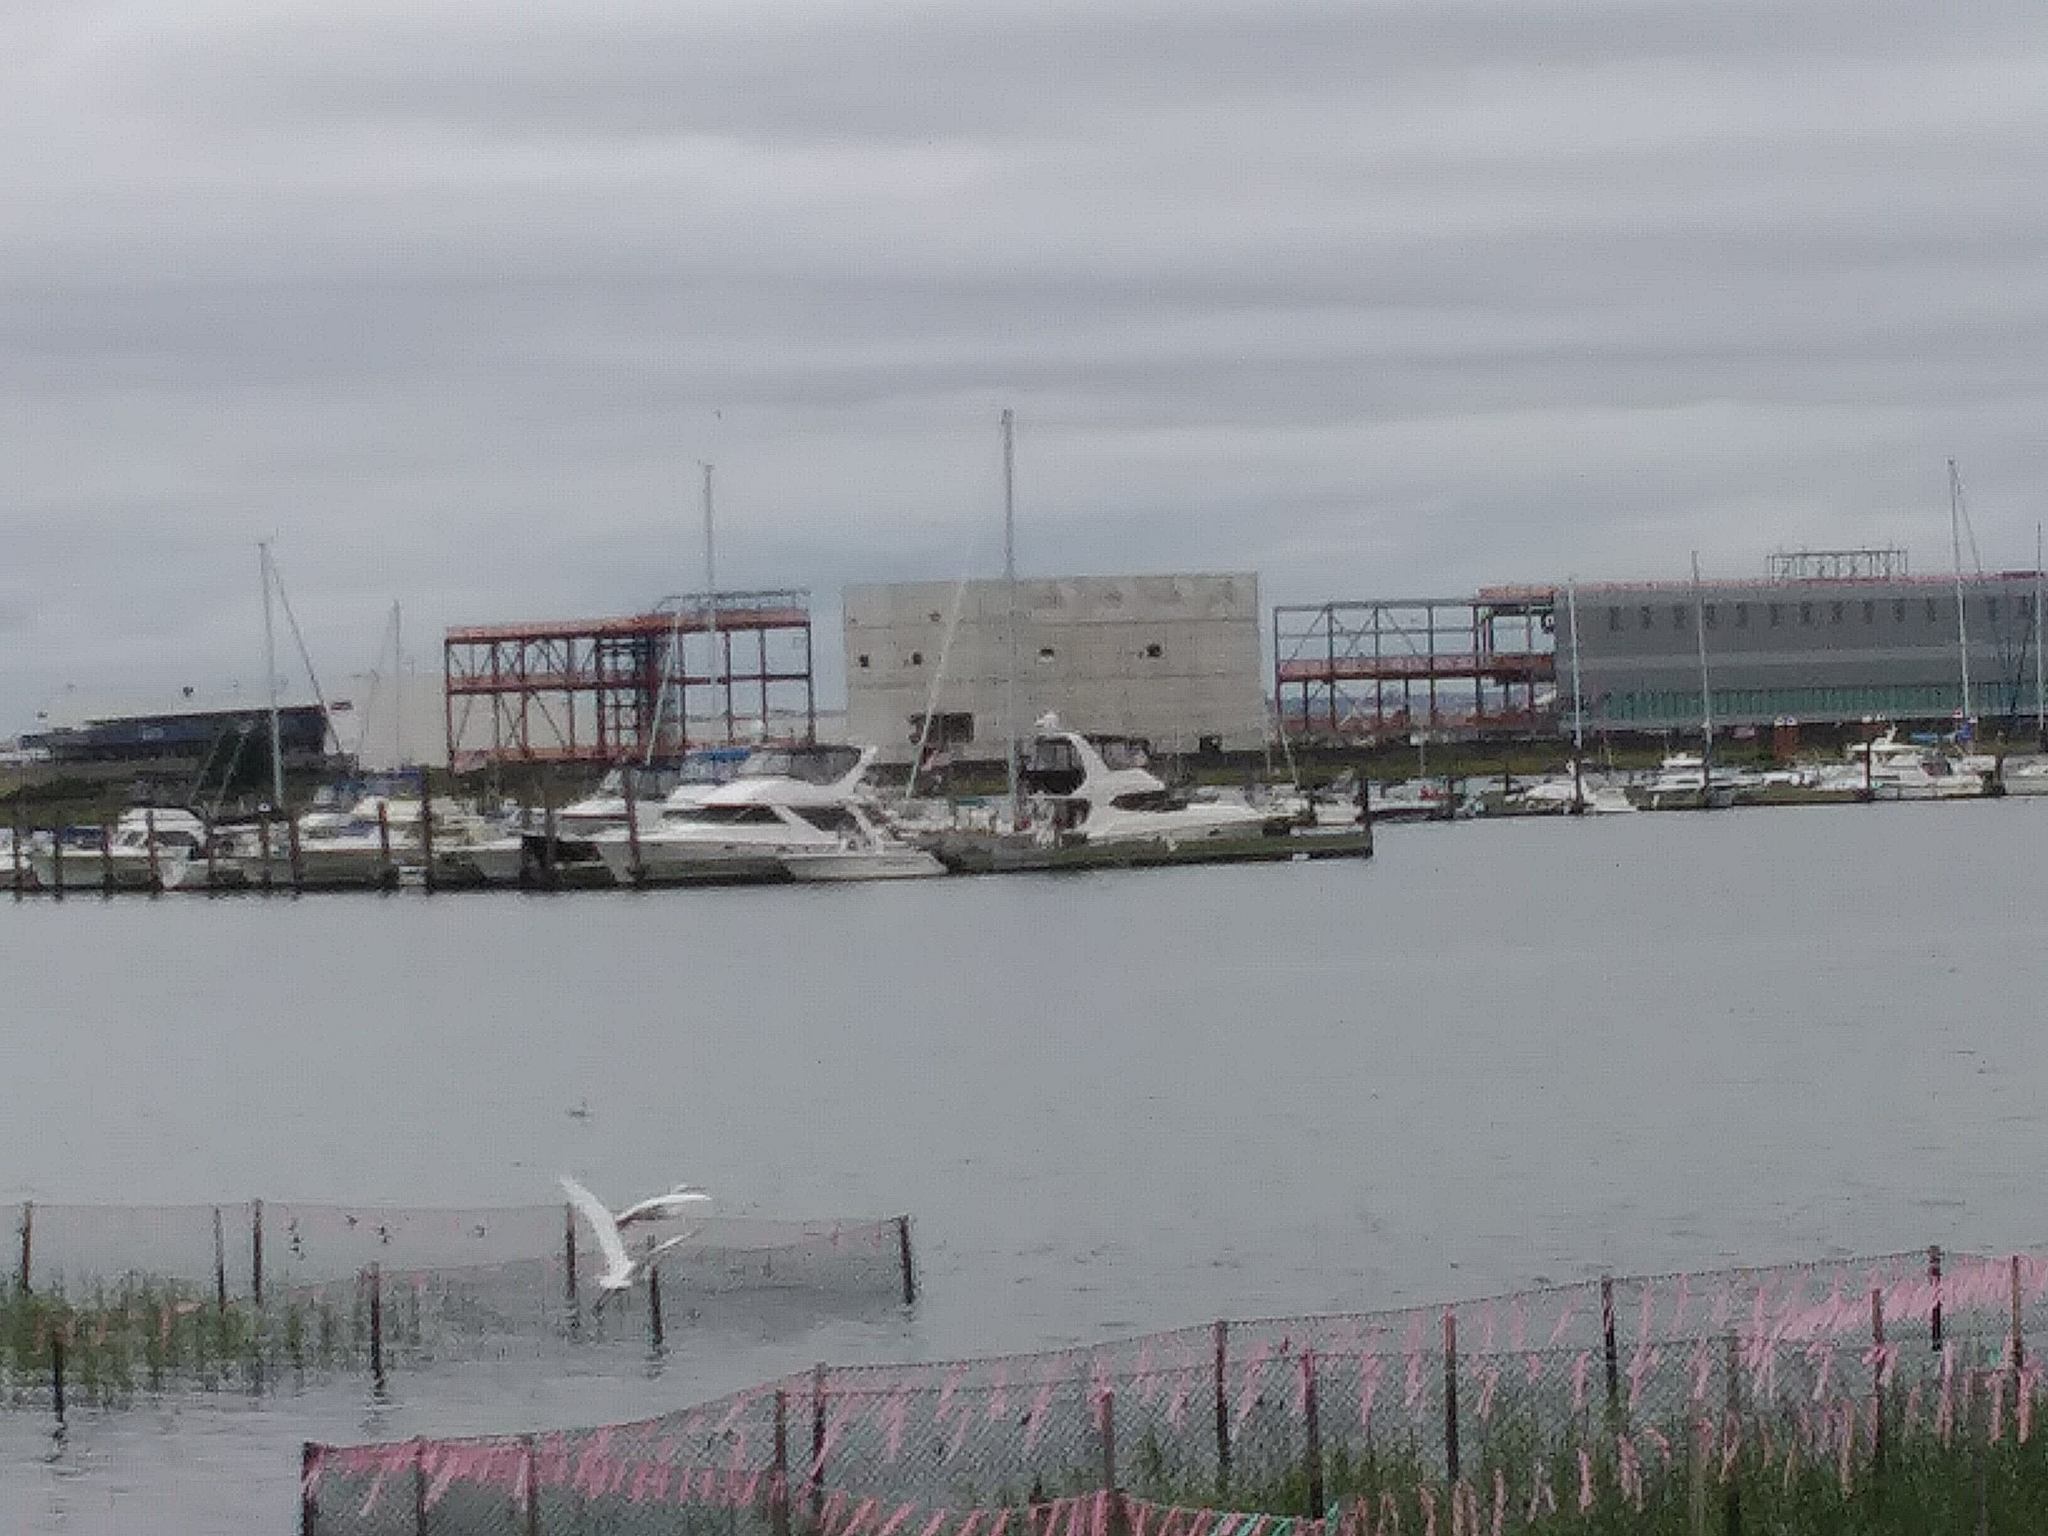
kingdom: Animalia
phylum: Chordata
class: Aves
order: Pelecaniformes
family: Ardeidae
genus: Ardea
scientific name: Ardea alba
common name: Great egret
